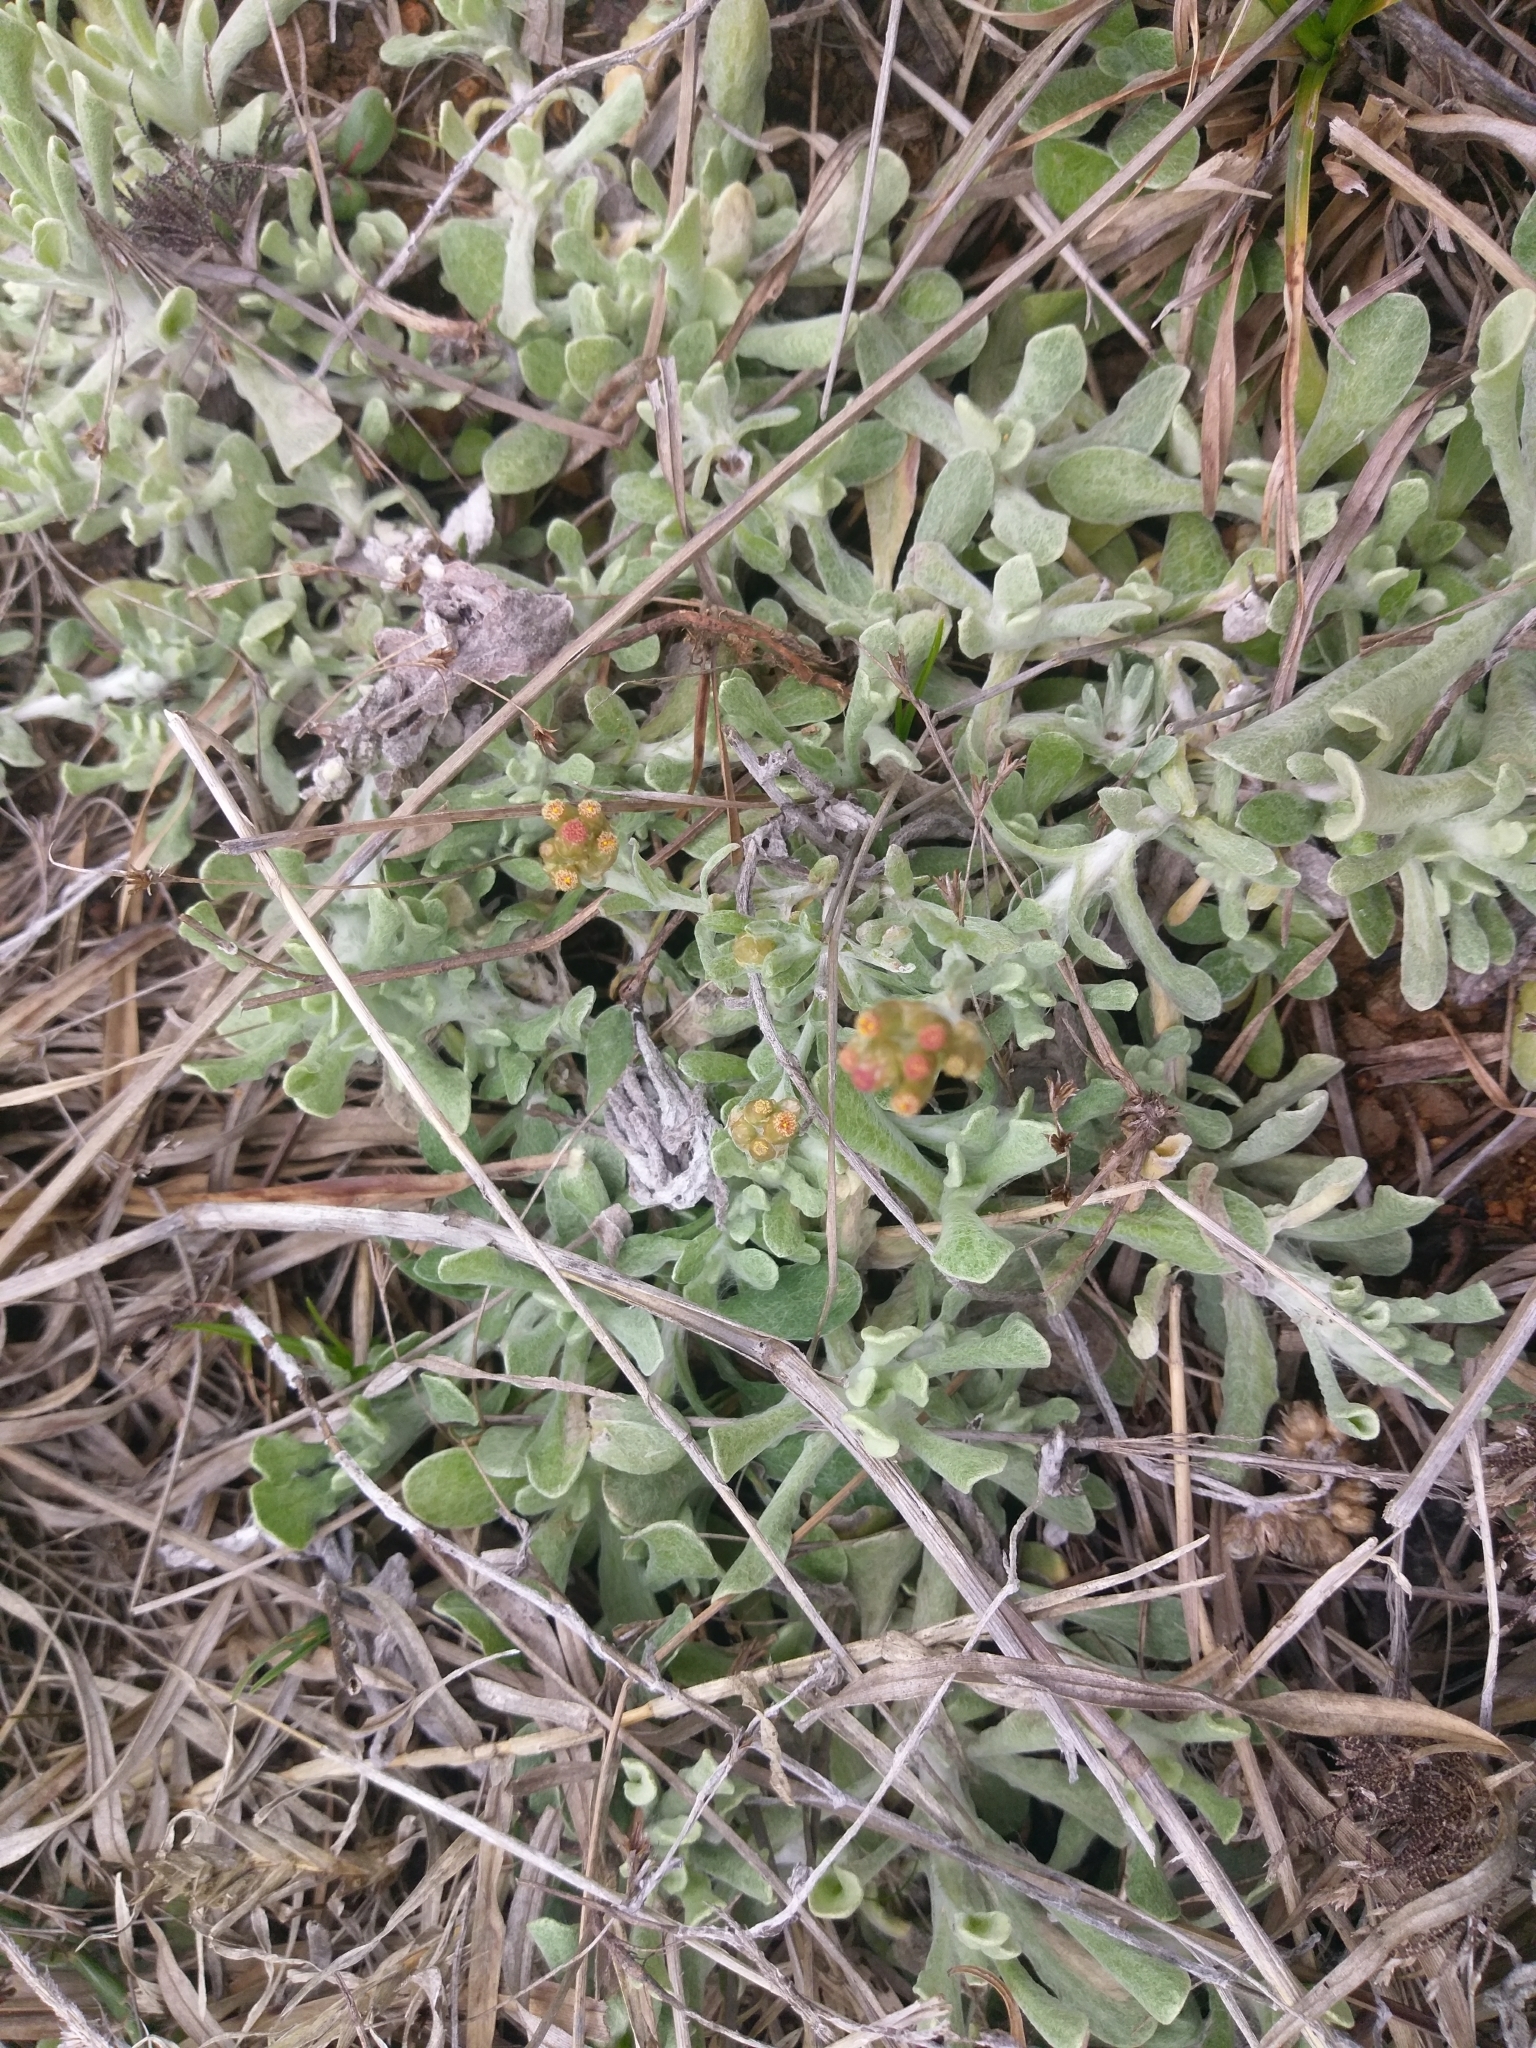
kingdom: Plantae
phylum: Tracheophyta
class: Magnoliopsida
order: Asterales
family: Asteraceae
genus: Helichrysum
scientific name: Helichrysum luteoalbum
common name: Daisy
